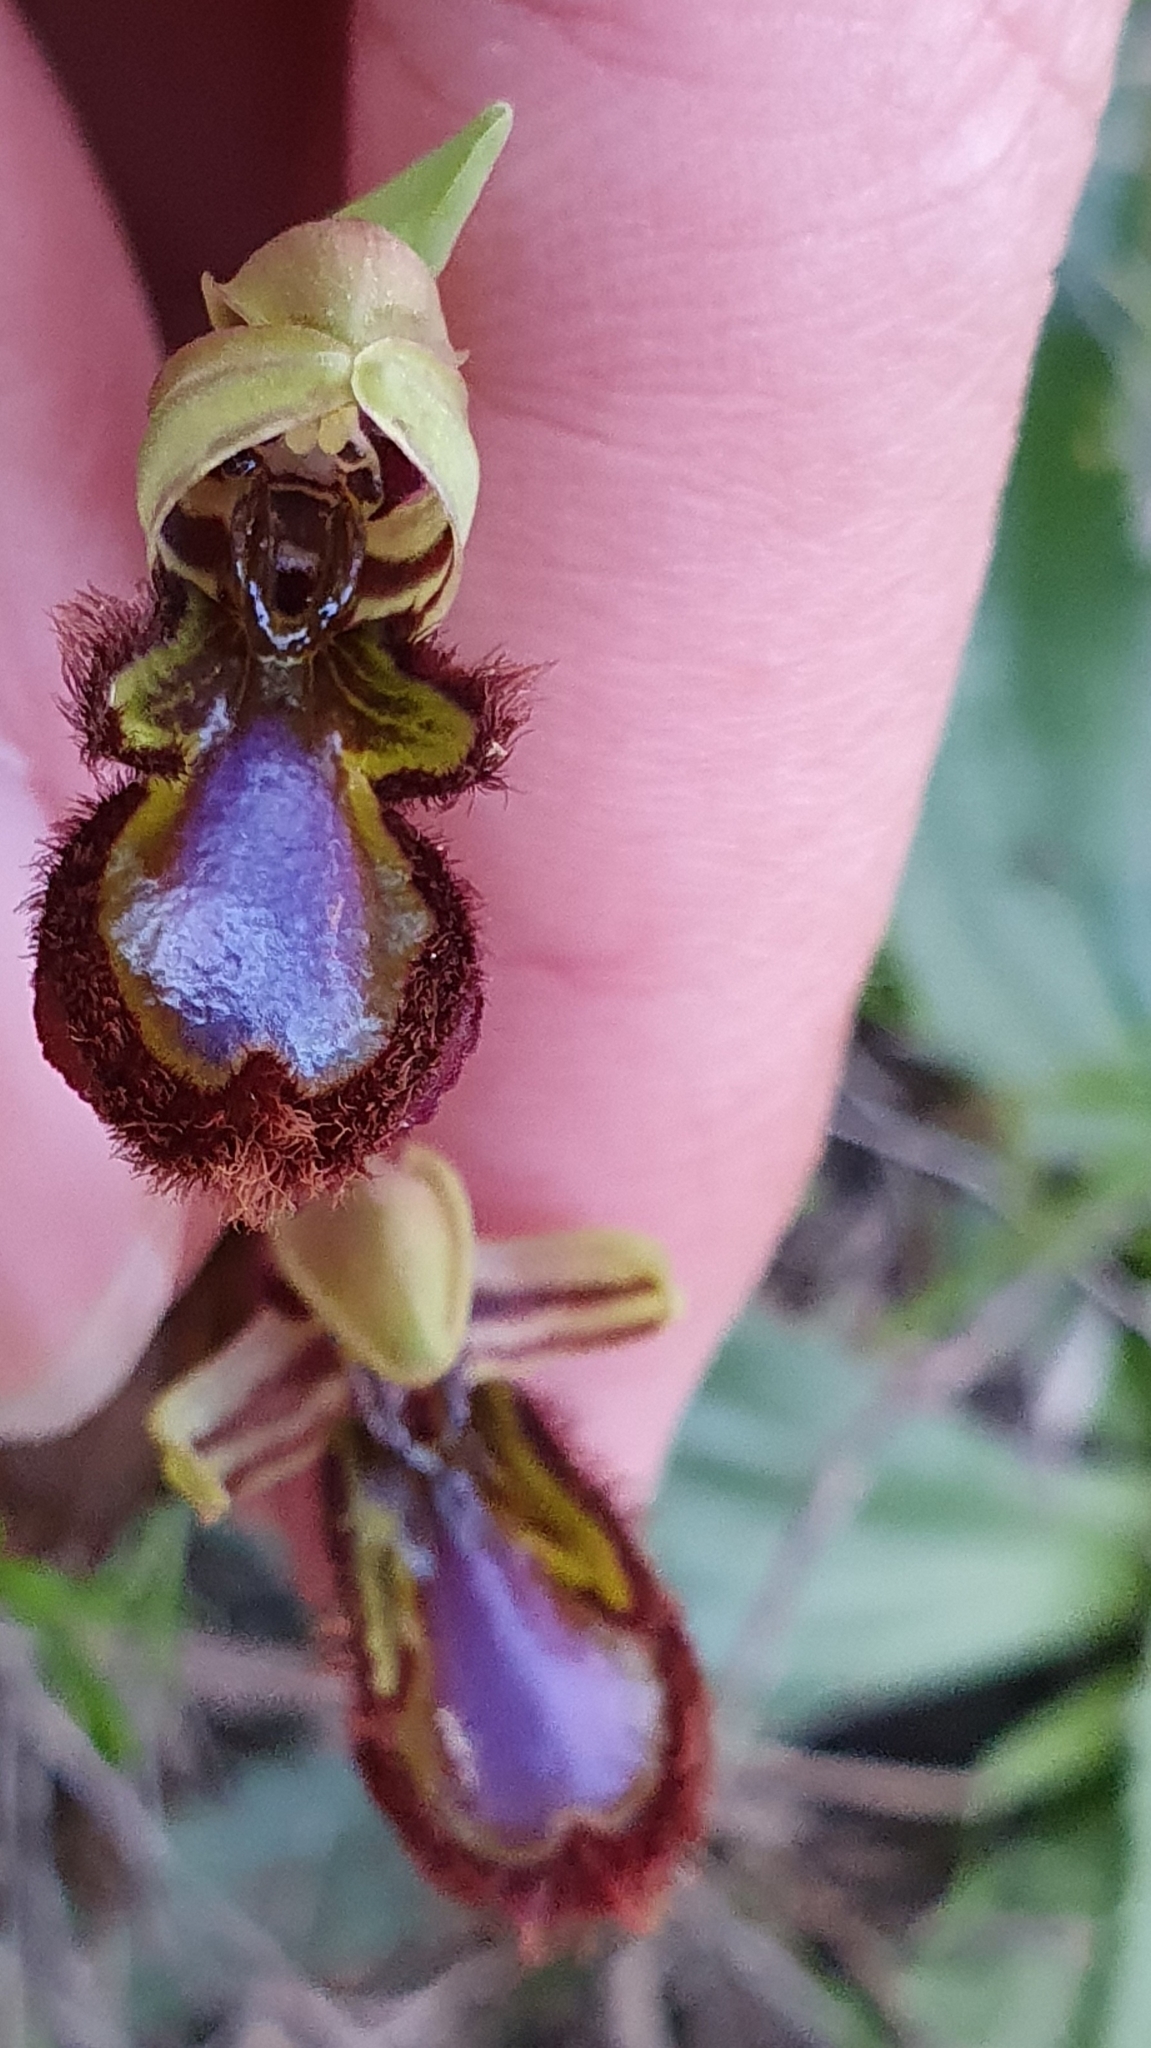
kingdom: Plantae
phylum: Tracheophyta
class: Liliopsida
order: Asparagales
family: Orchidaceae
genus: Ophrys
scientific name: Ophrys speculum
